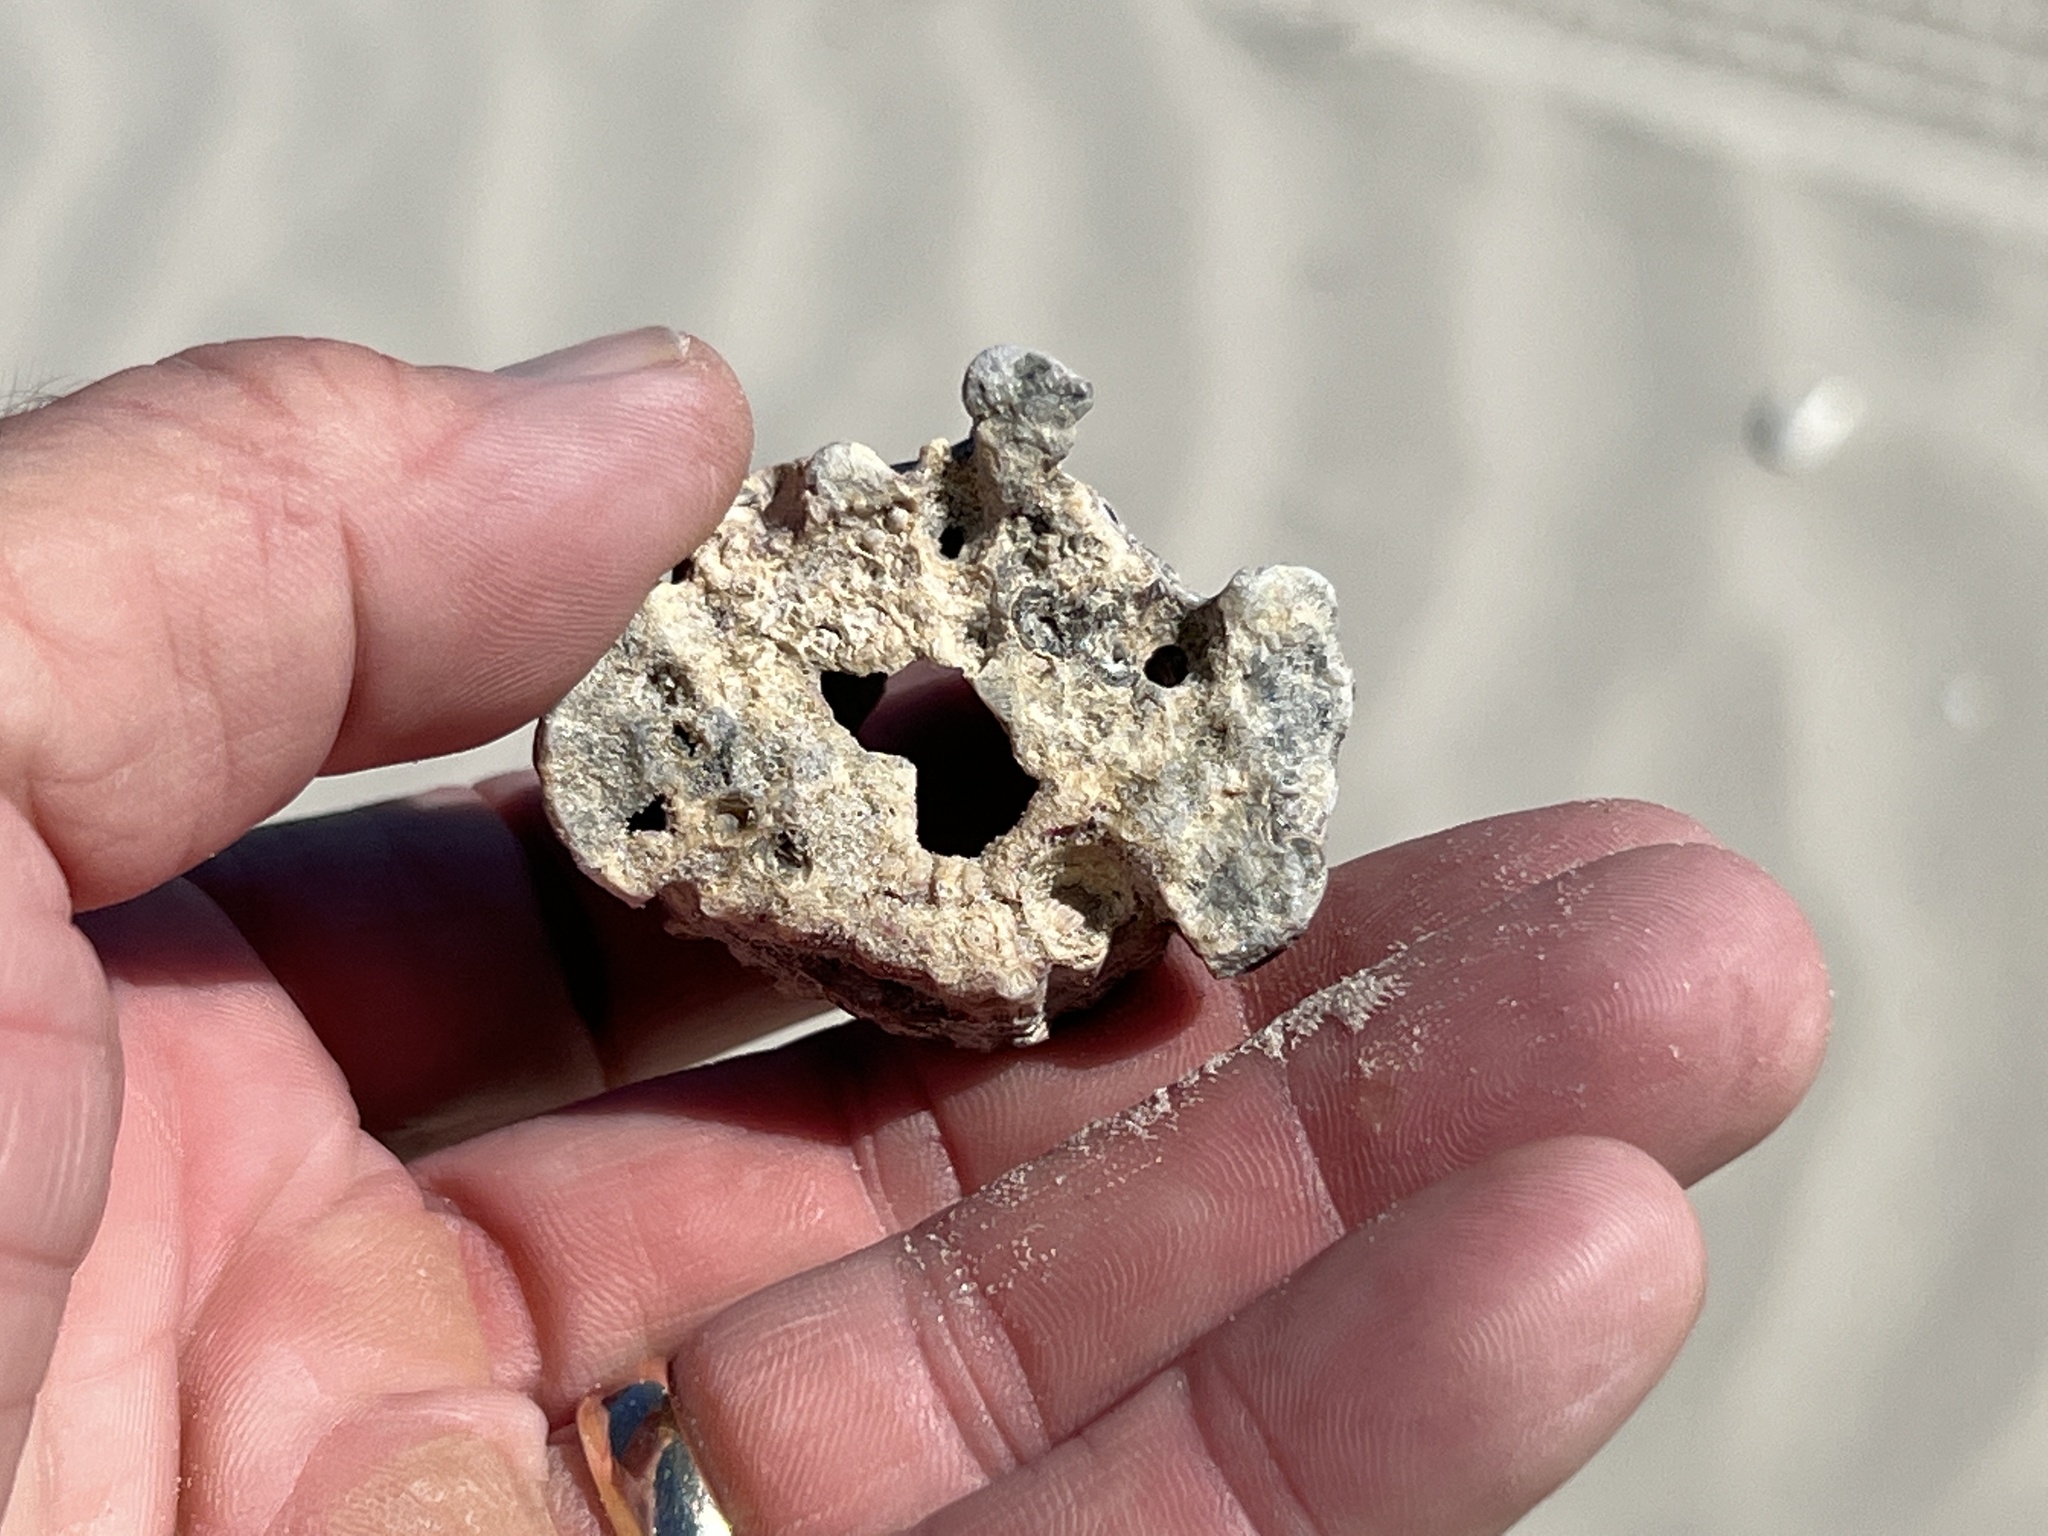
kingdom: Animalia
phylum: Arthropoda
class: Maxillopoda
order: Sessilia
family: Balanidae
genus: Megabalanus
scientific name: Megabalanus tintinnabulum
